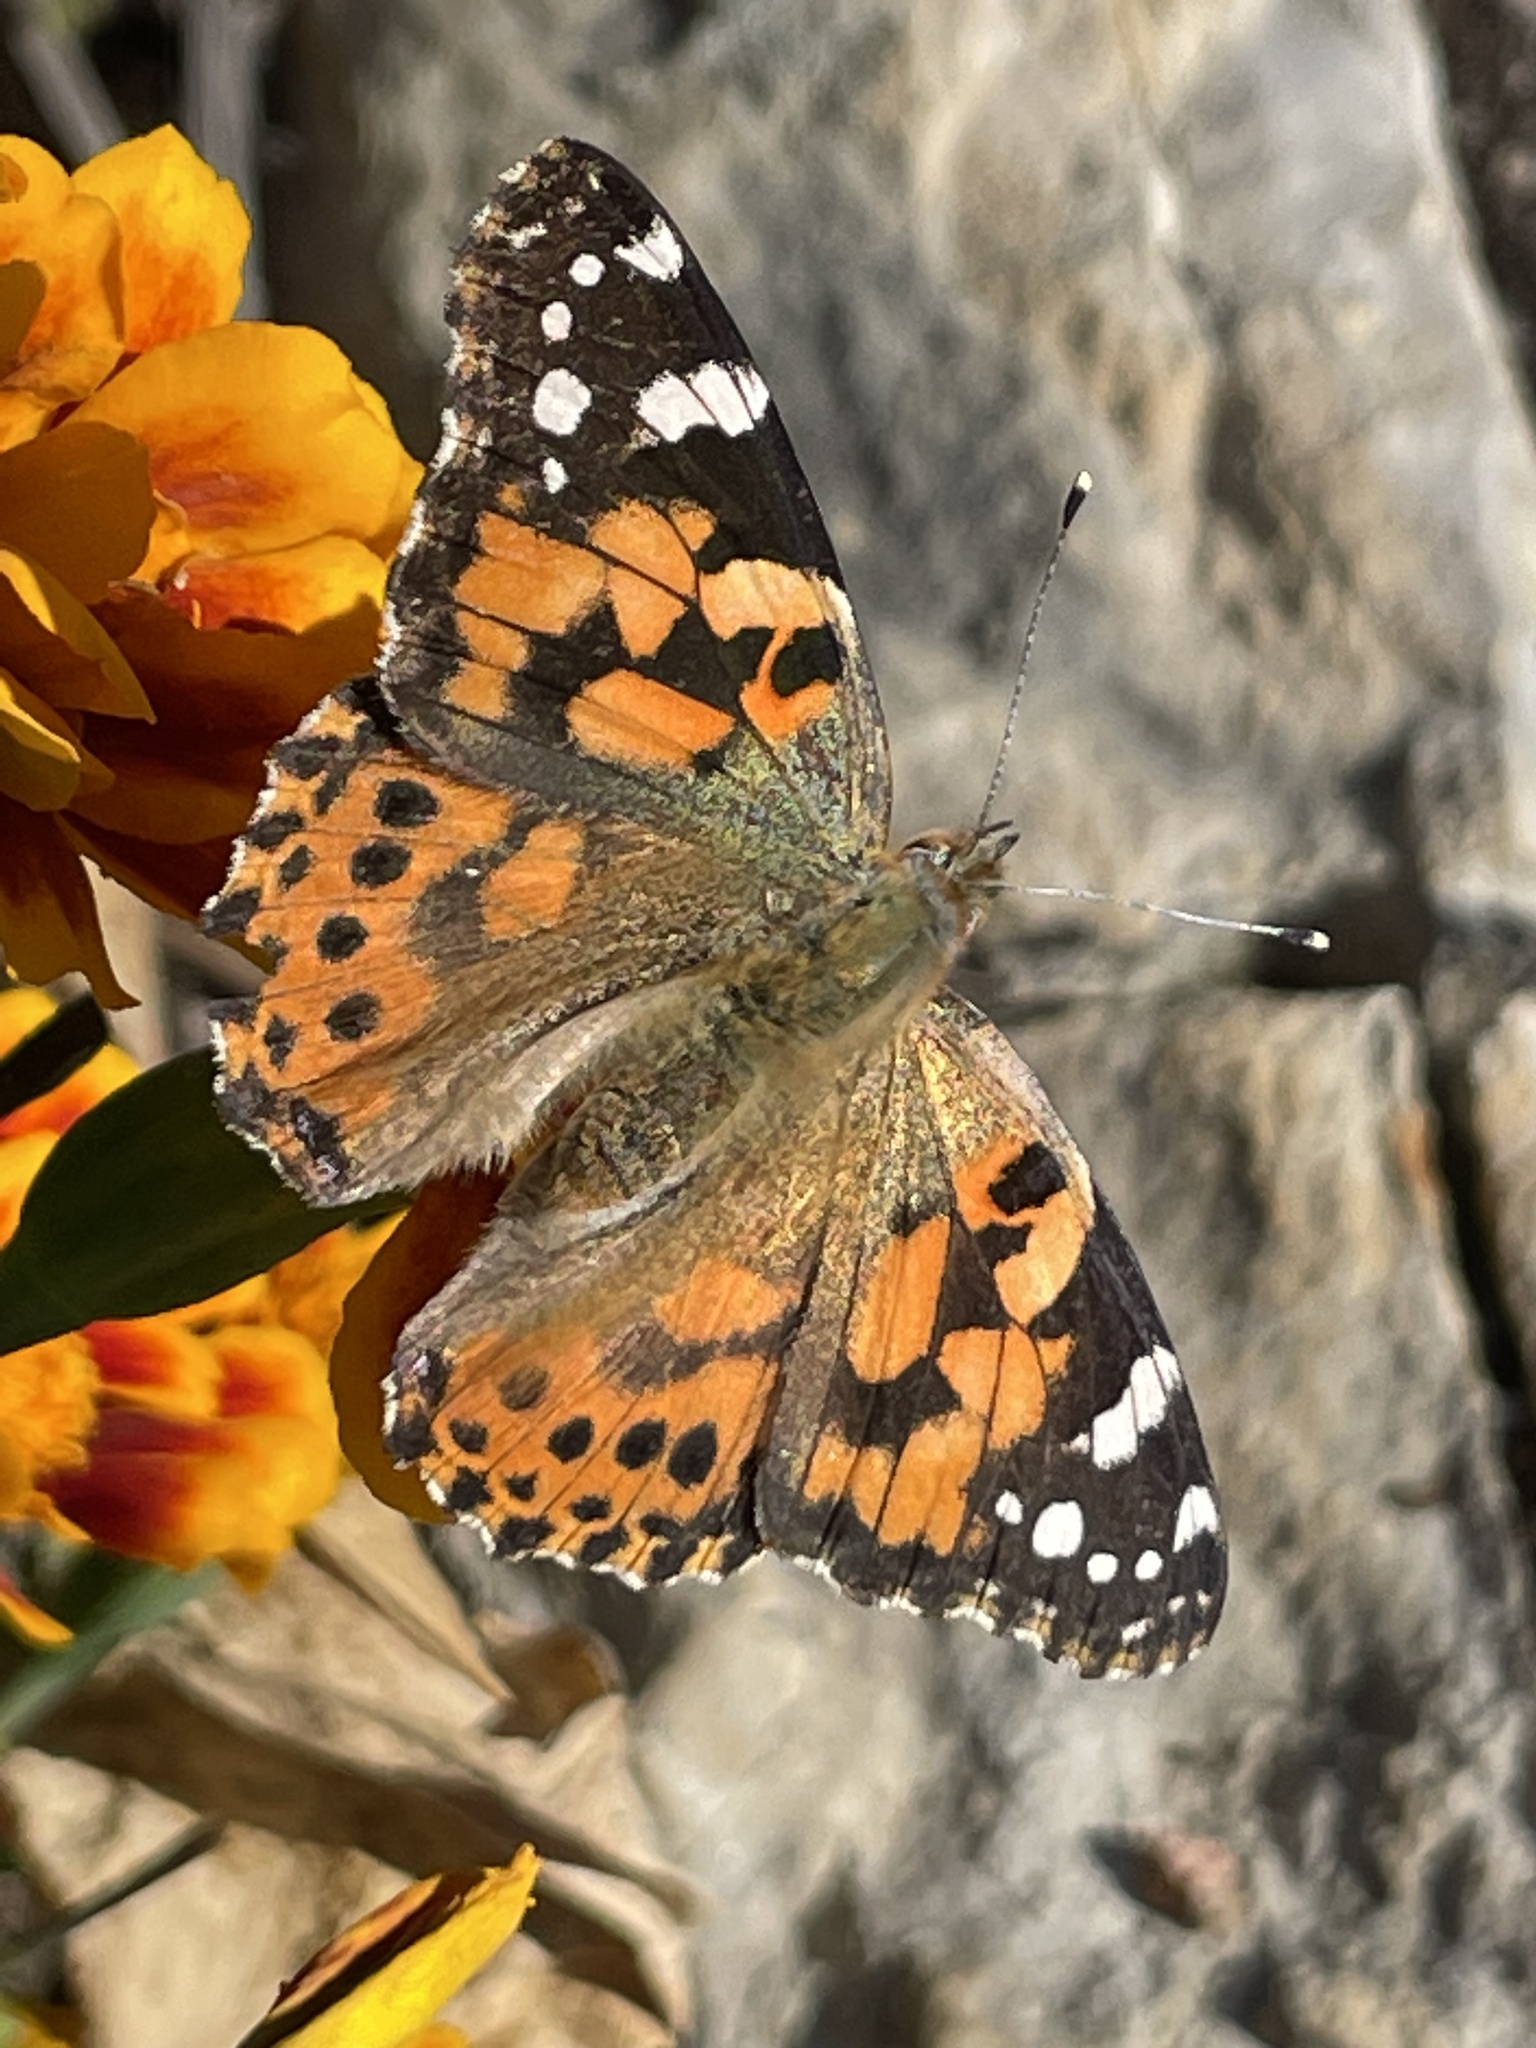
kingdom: Animalia
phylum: Arthropoda
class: Insecta
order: Lepidoptera
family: Nymphalidae
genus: Vanessa
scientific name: Vanessa cardui
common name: Painted lady
